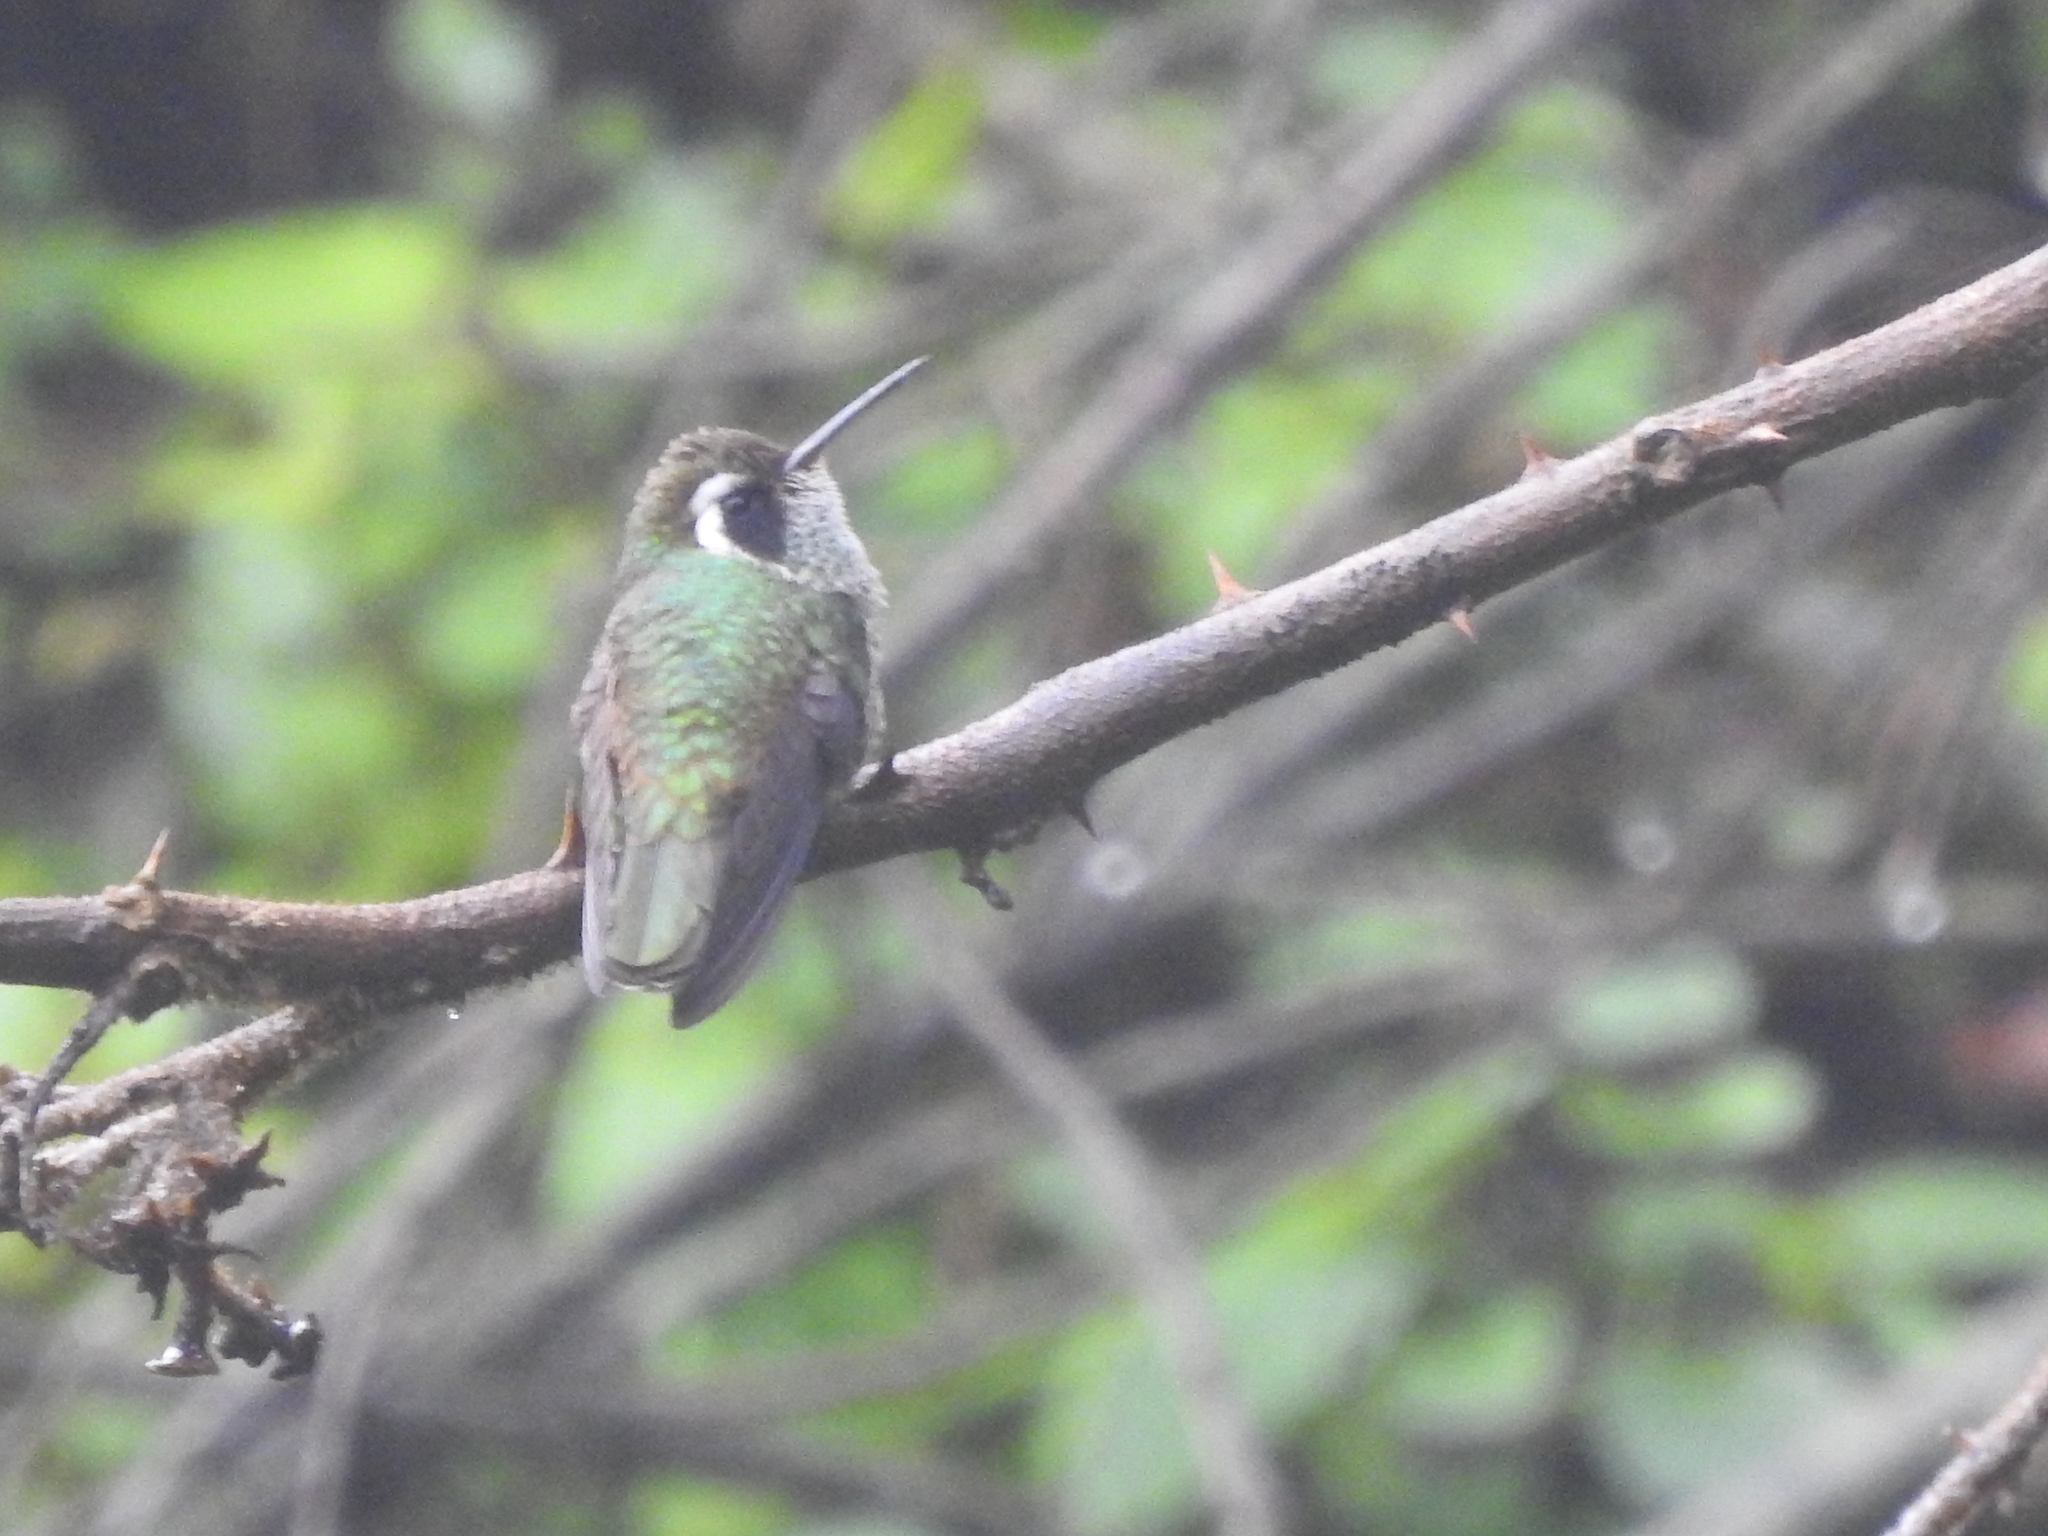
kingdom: Animalia
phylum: Chordata
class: Aves
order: Apodiformes
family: Trochilidae
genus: Basilinna
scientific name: Basilinna leucotis
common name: White-eared hummingbird
